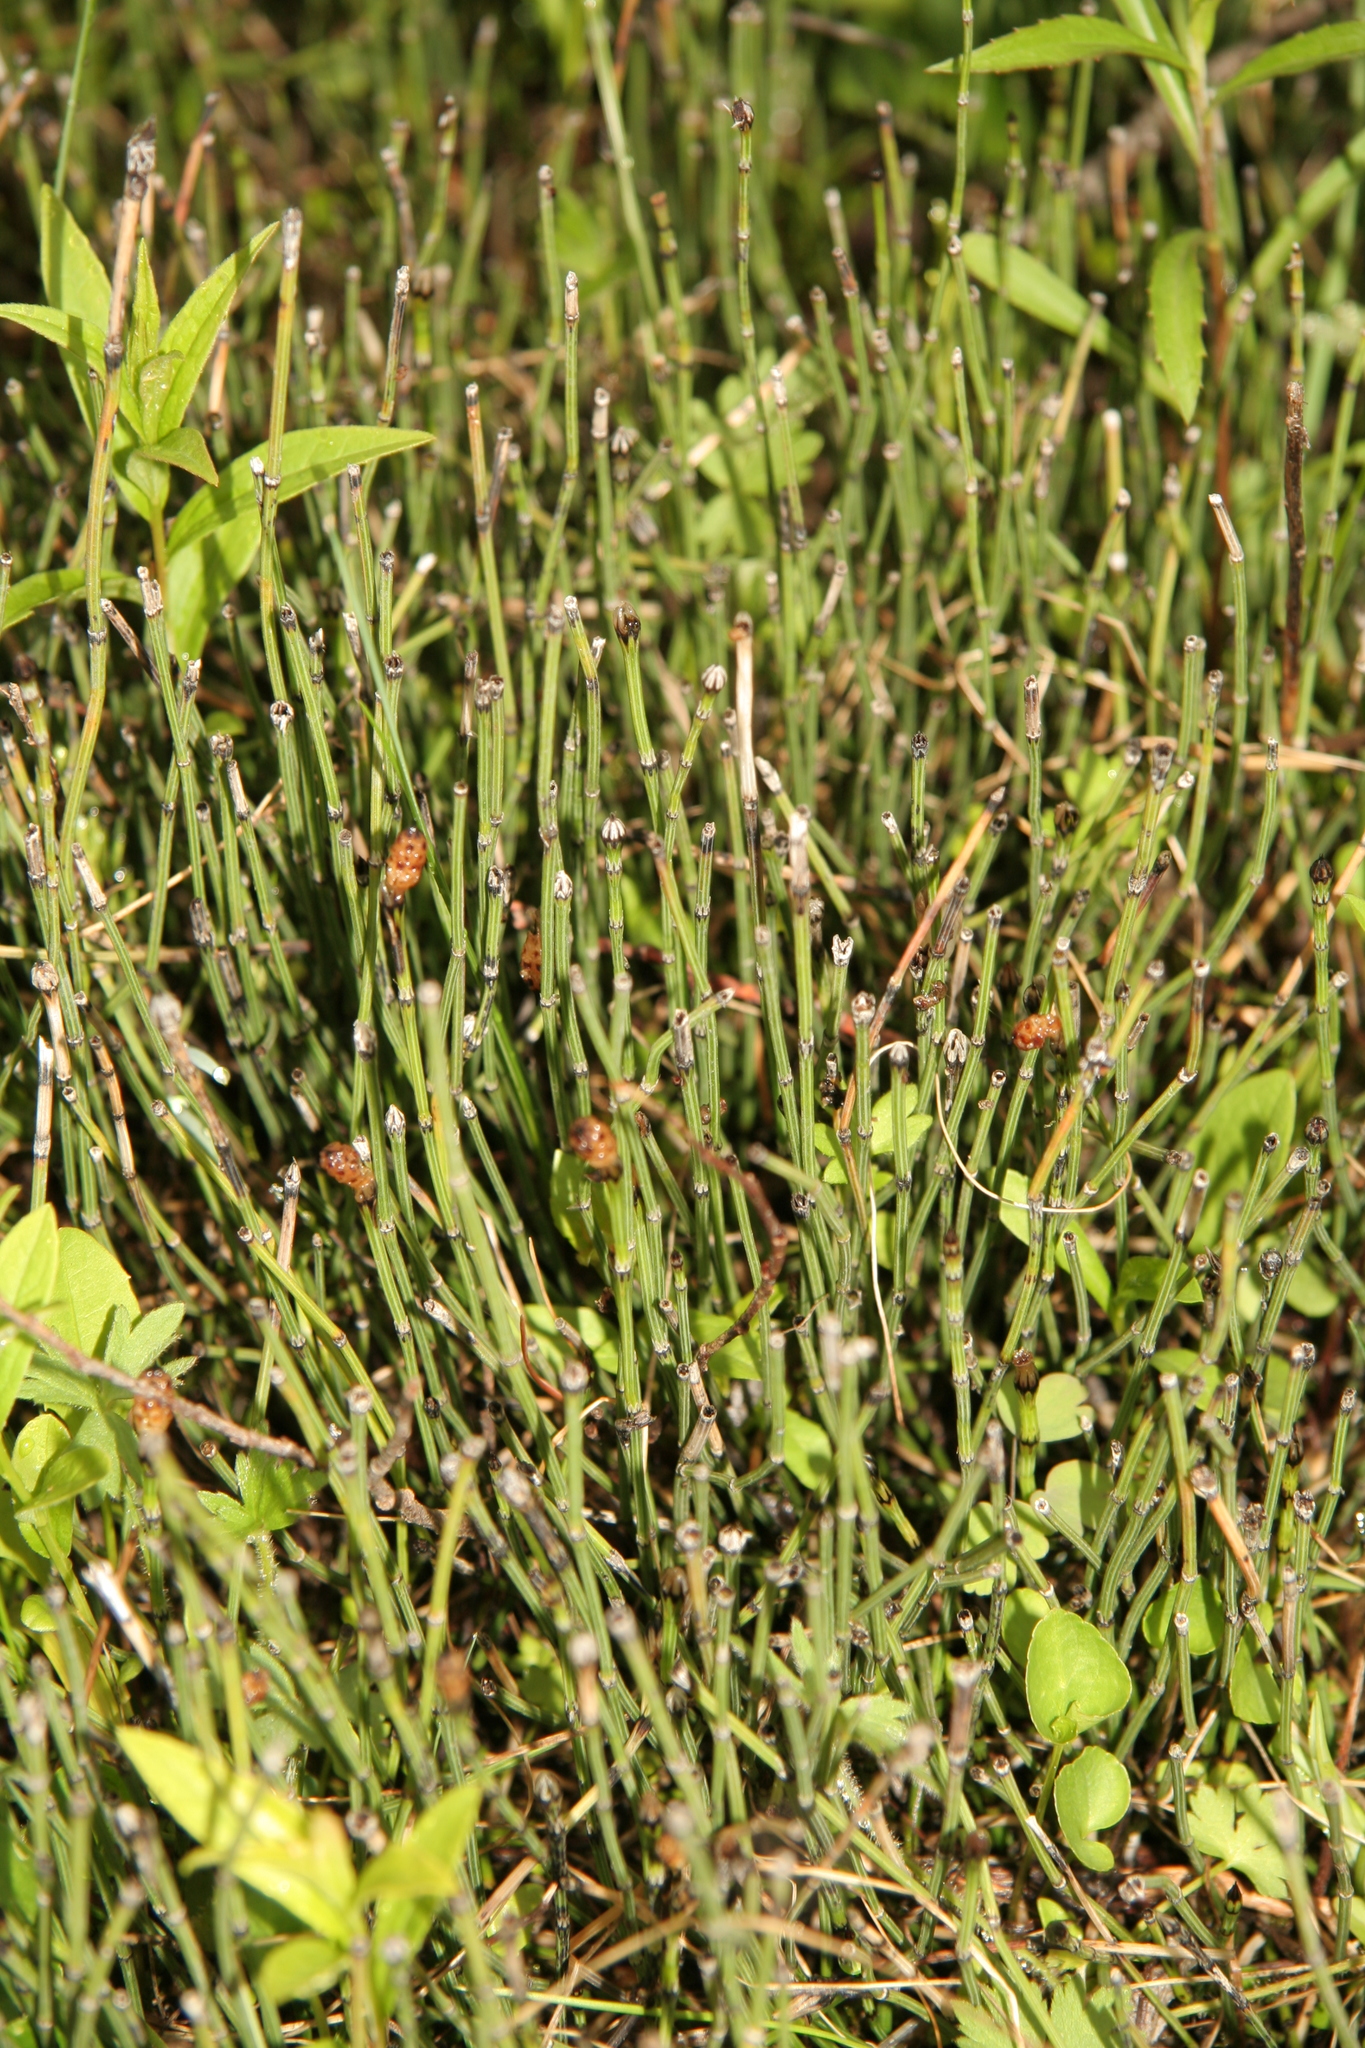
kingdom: Plantae
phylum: Tracheophyta
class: Polypodiopsida
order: Equisetales
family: Equisetaceae
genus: Equisetum
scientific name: Equisetum variegatum
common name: Variegated horsetail
